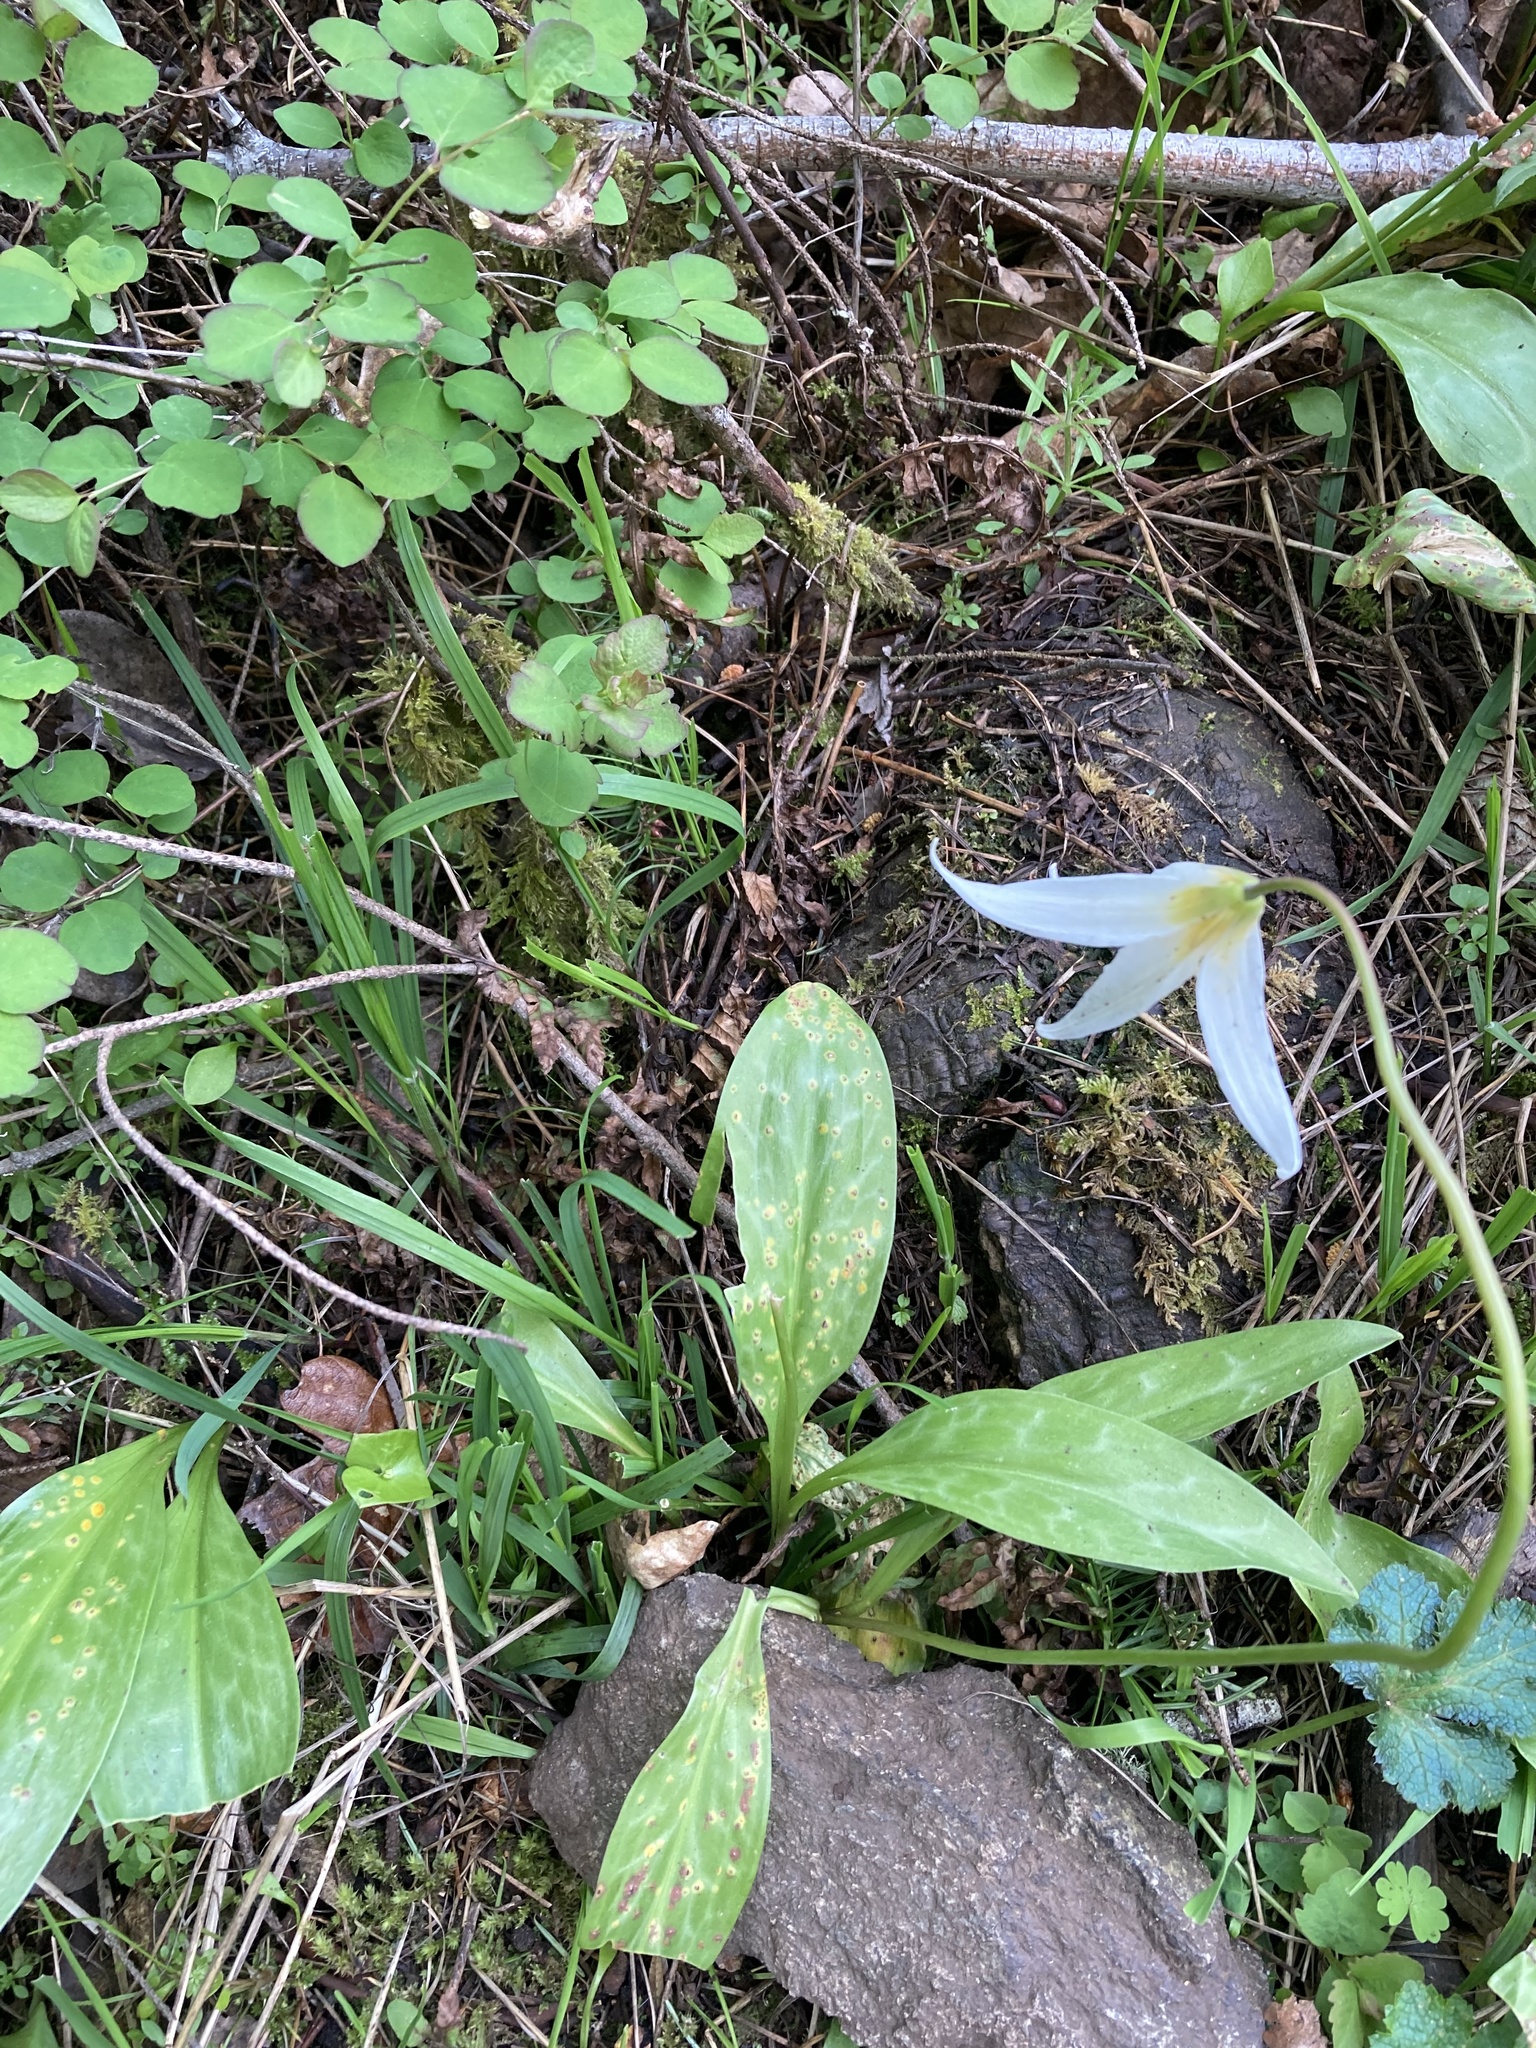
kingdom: Fungi
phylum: Basidiomycota
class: Pucciniomycetes
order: Pucciniales
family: Pucciniaceae
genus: Uromyces
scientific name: Uromyces erythronii
